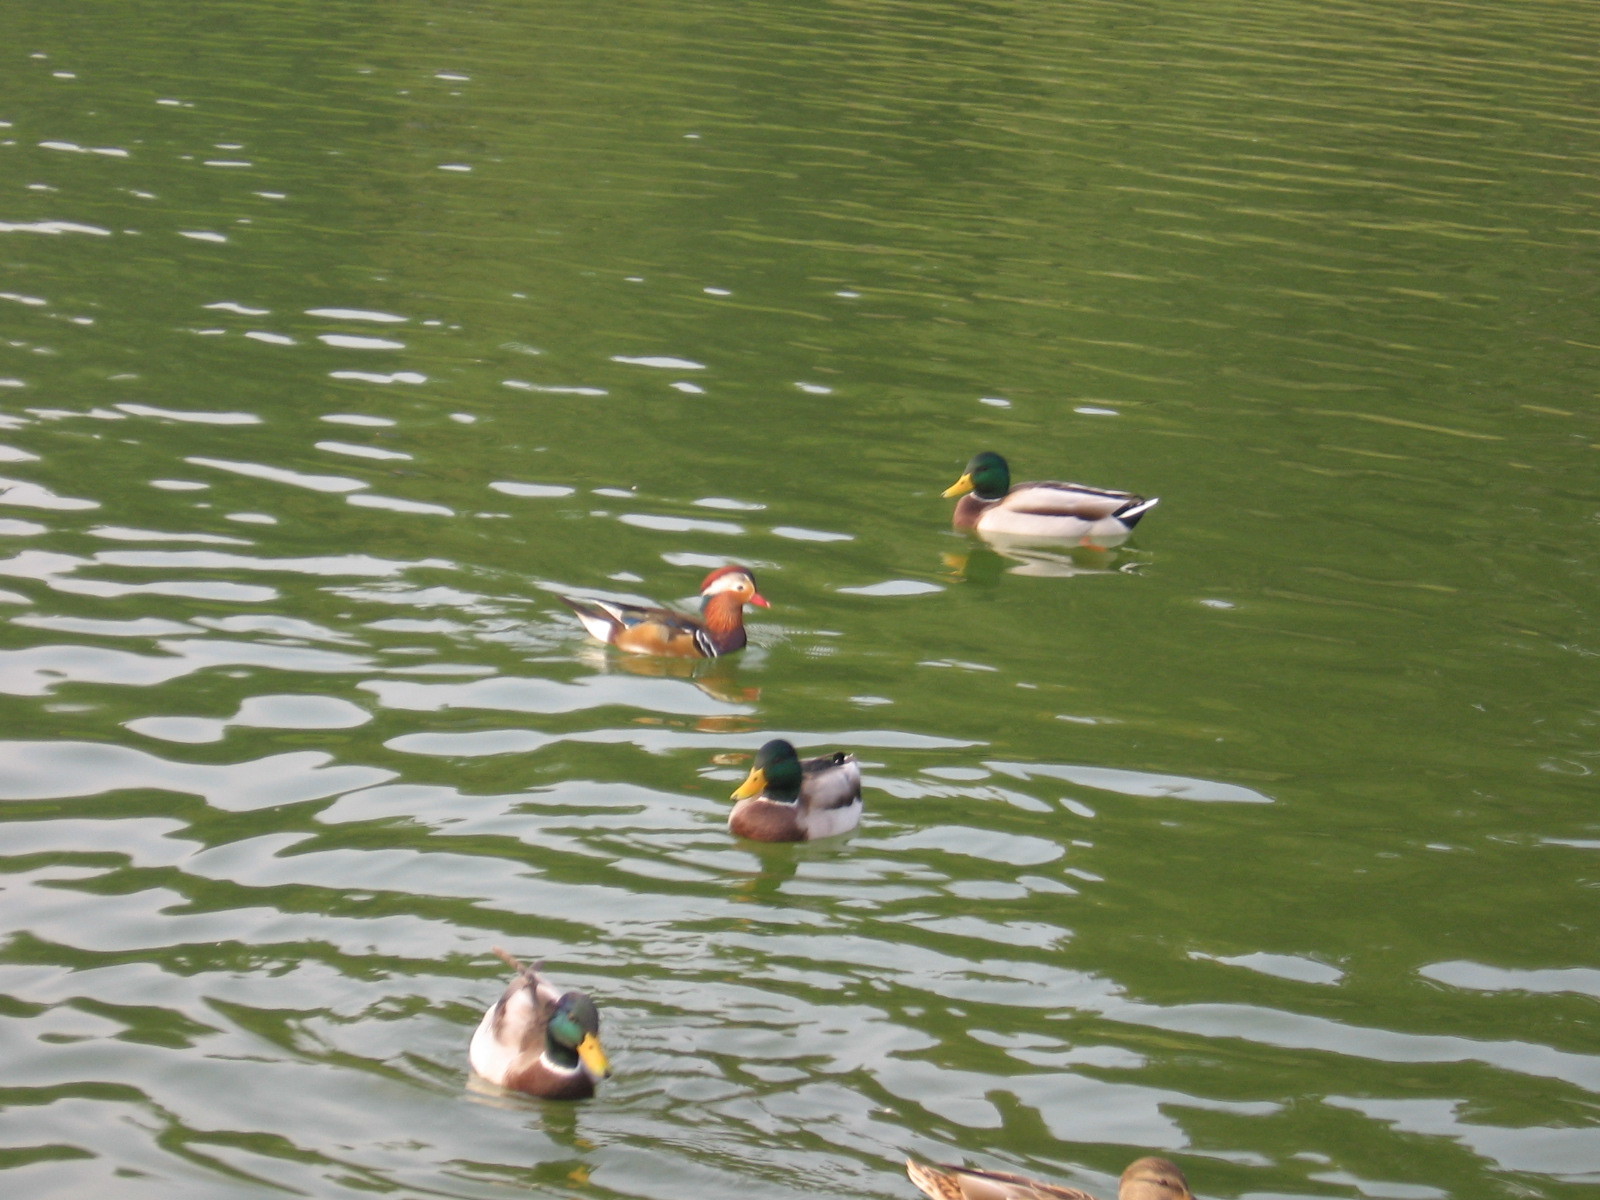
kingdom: Animalia
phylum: Chordata
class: Aves
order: Anseriformes
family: Anatidae
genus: Aix
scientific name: Aix galericulata
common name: Mandarin duck
